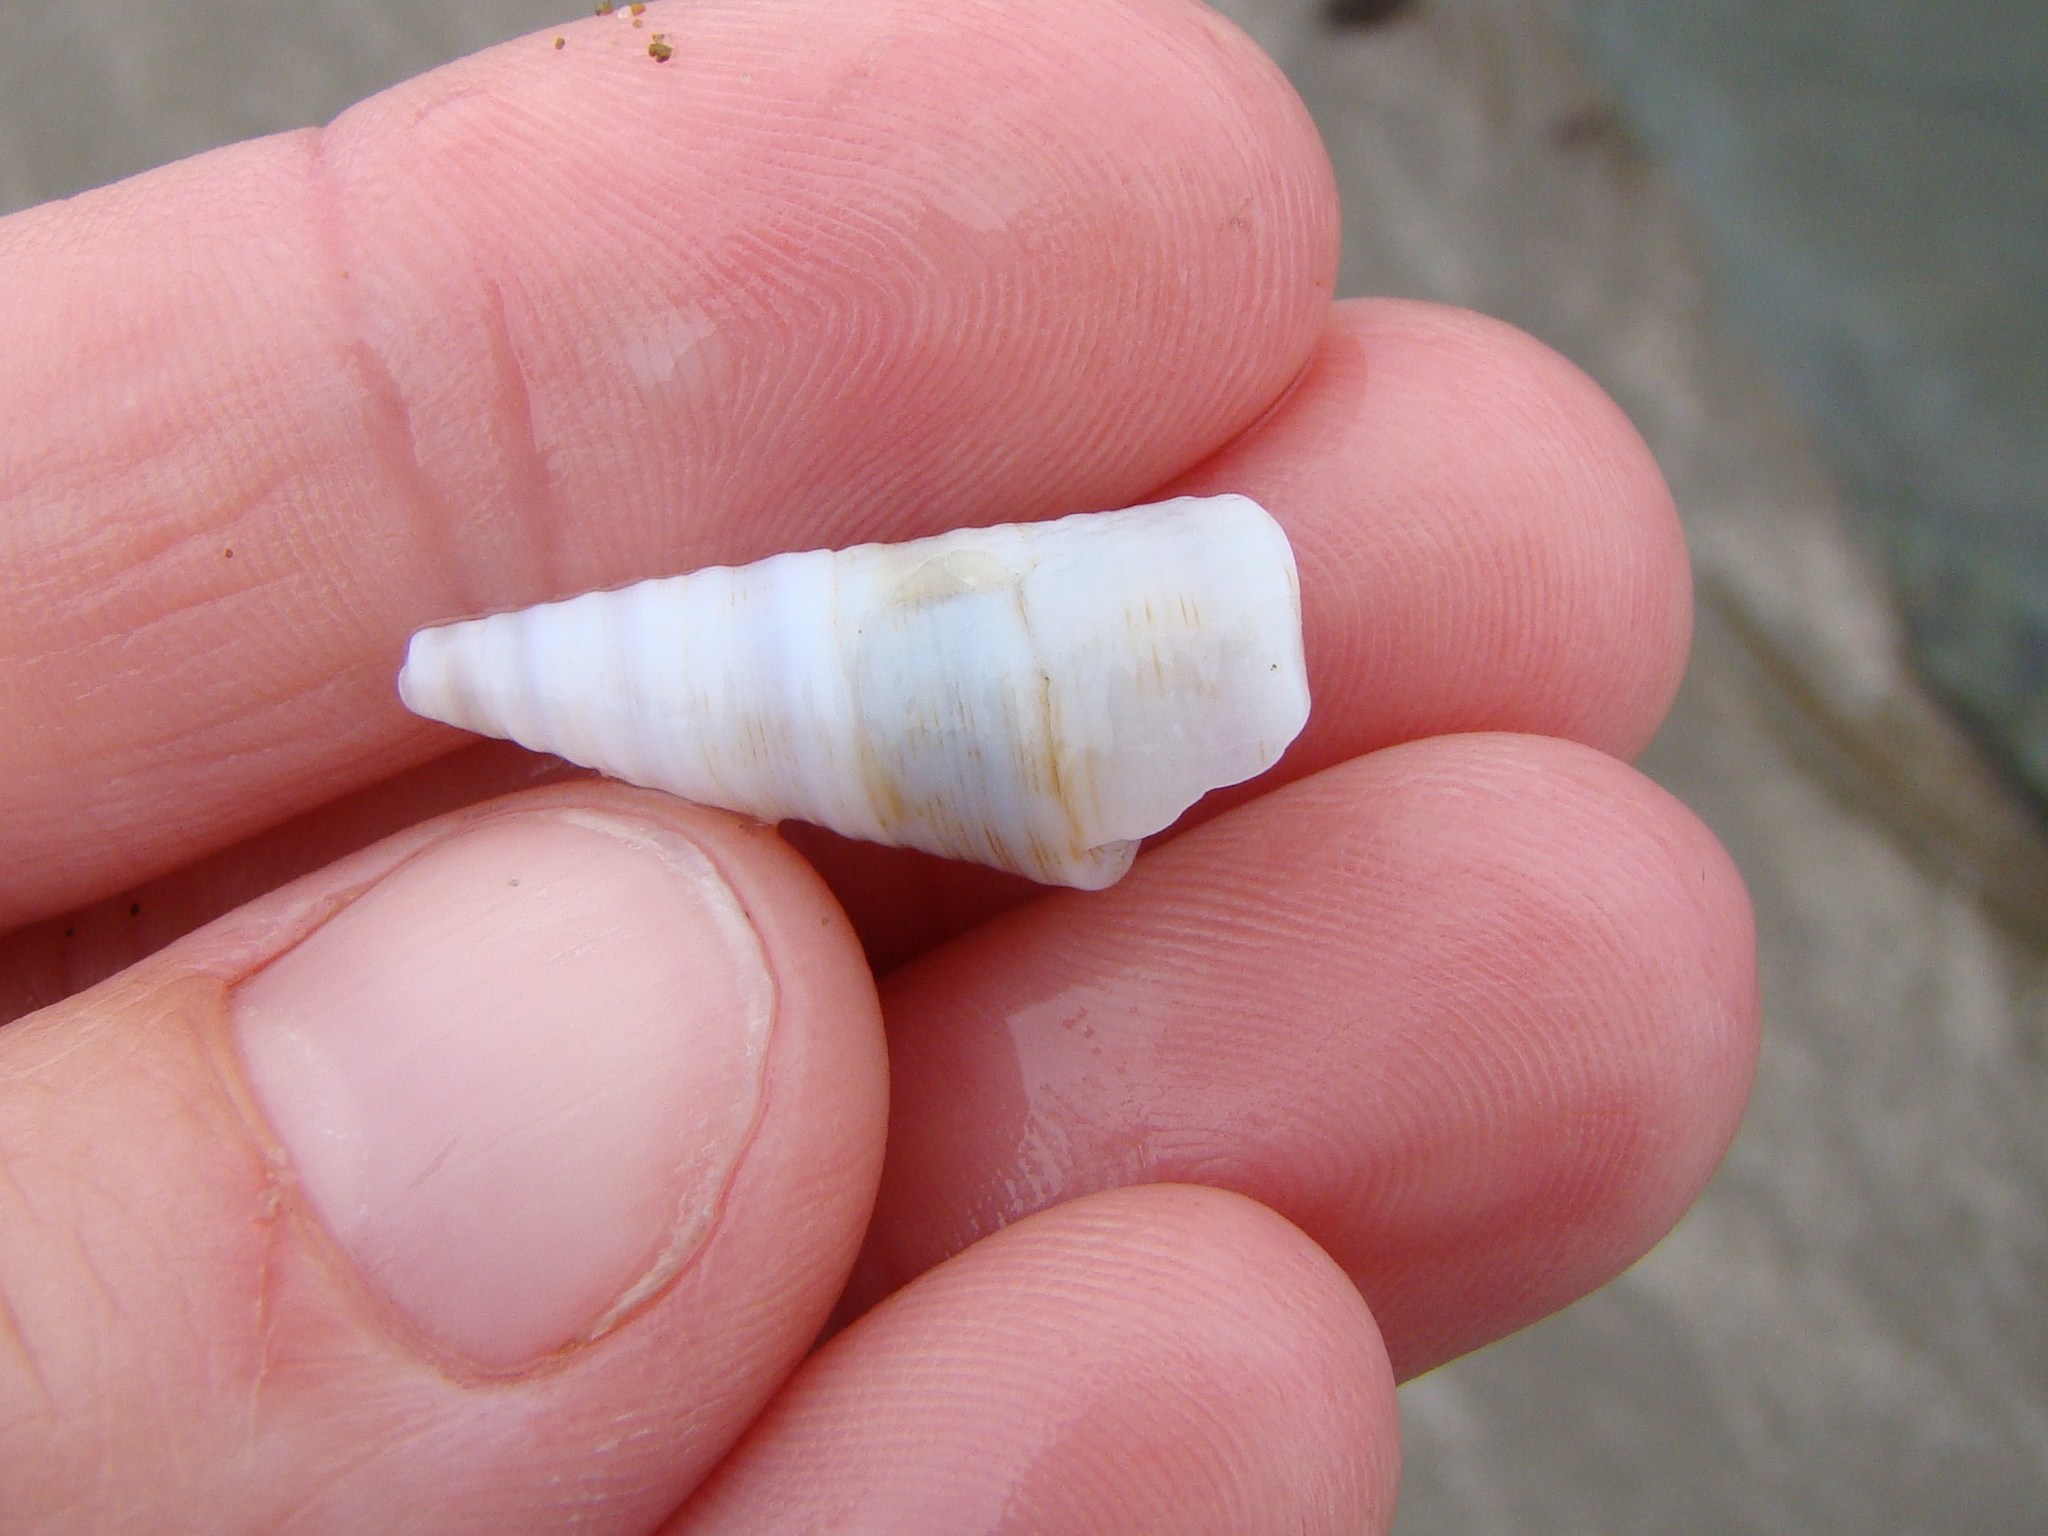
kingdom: Animalia
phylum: Mollusca
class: Gastropoda
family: Turritellidae
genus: Maoricolpus
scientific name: Maoricolpus roseus
